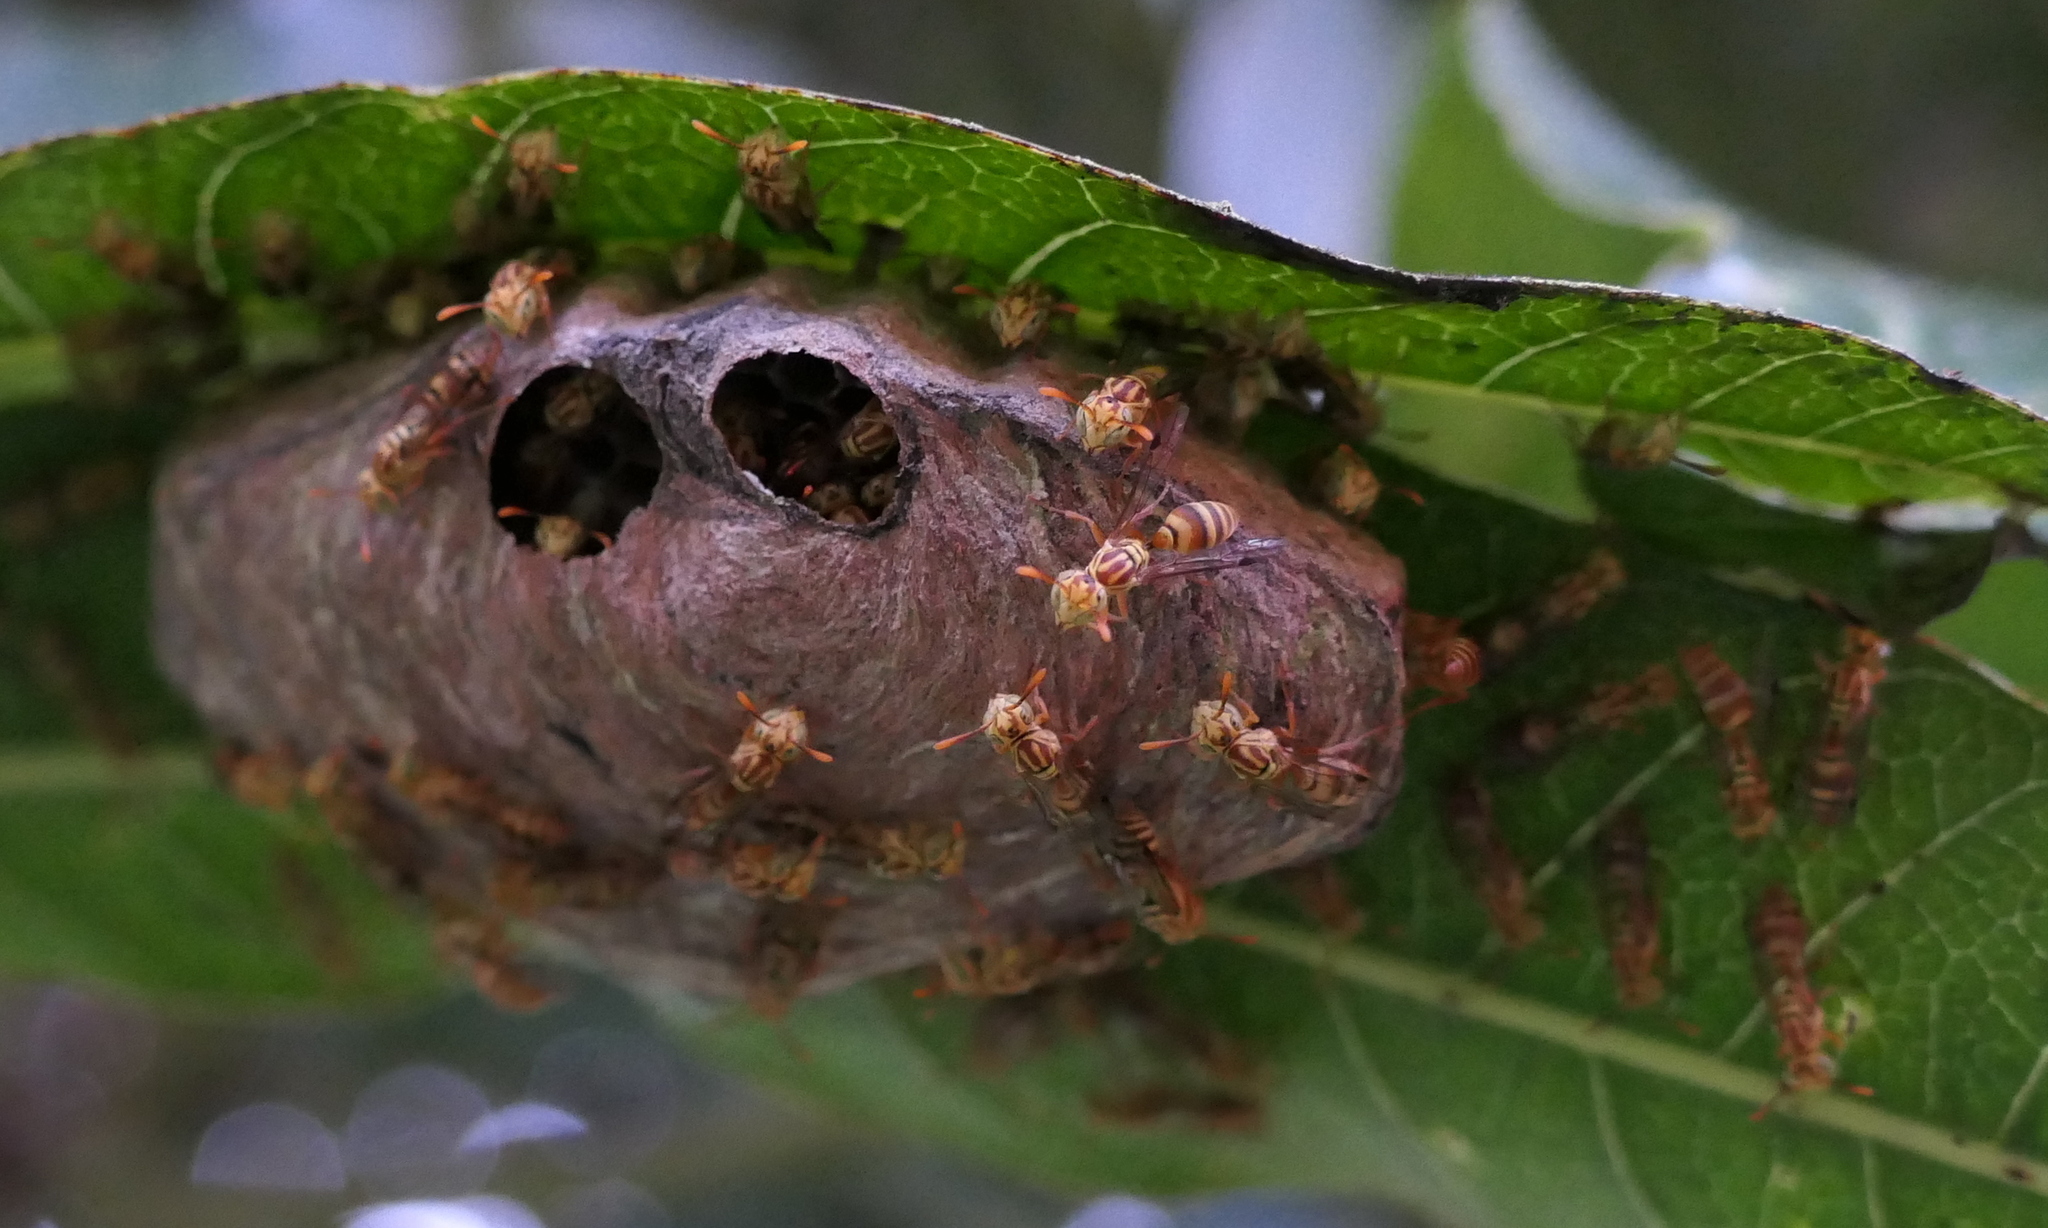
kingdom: Animalia
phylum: Arthropoda
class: Insecta
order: Hymenoptera
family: Vespidae
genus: Protopolybia
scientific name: Protopolybia potiguara
